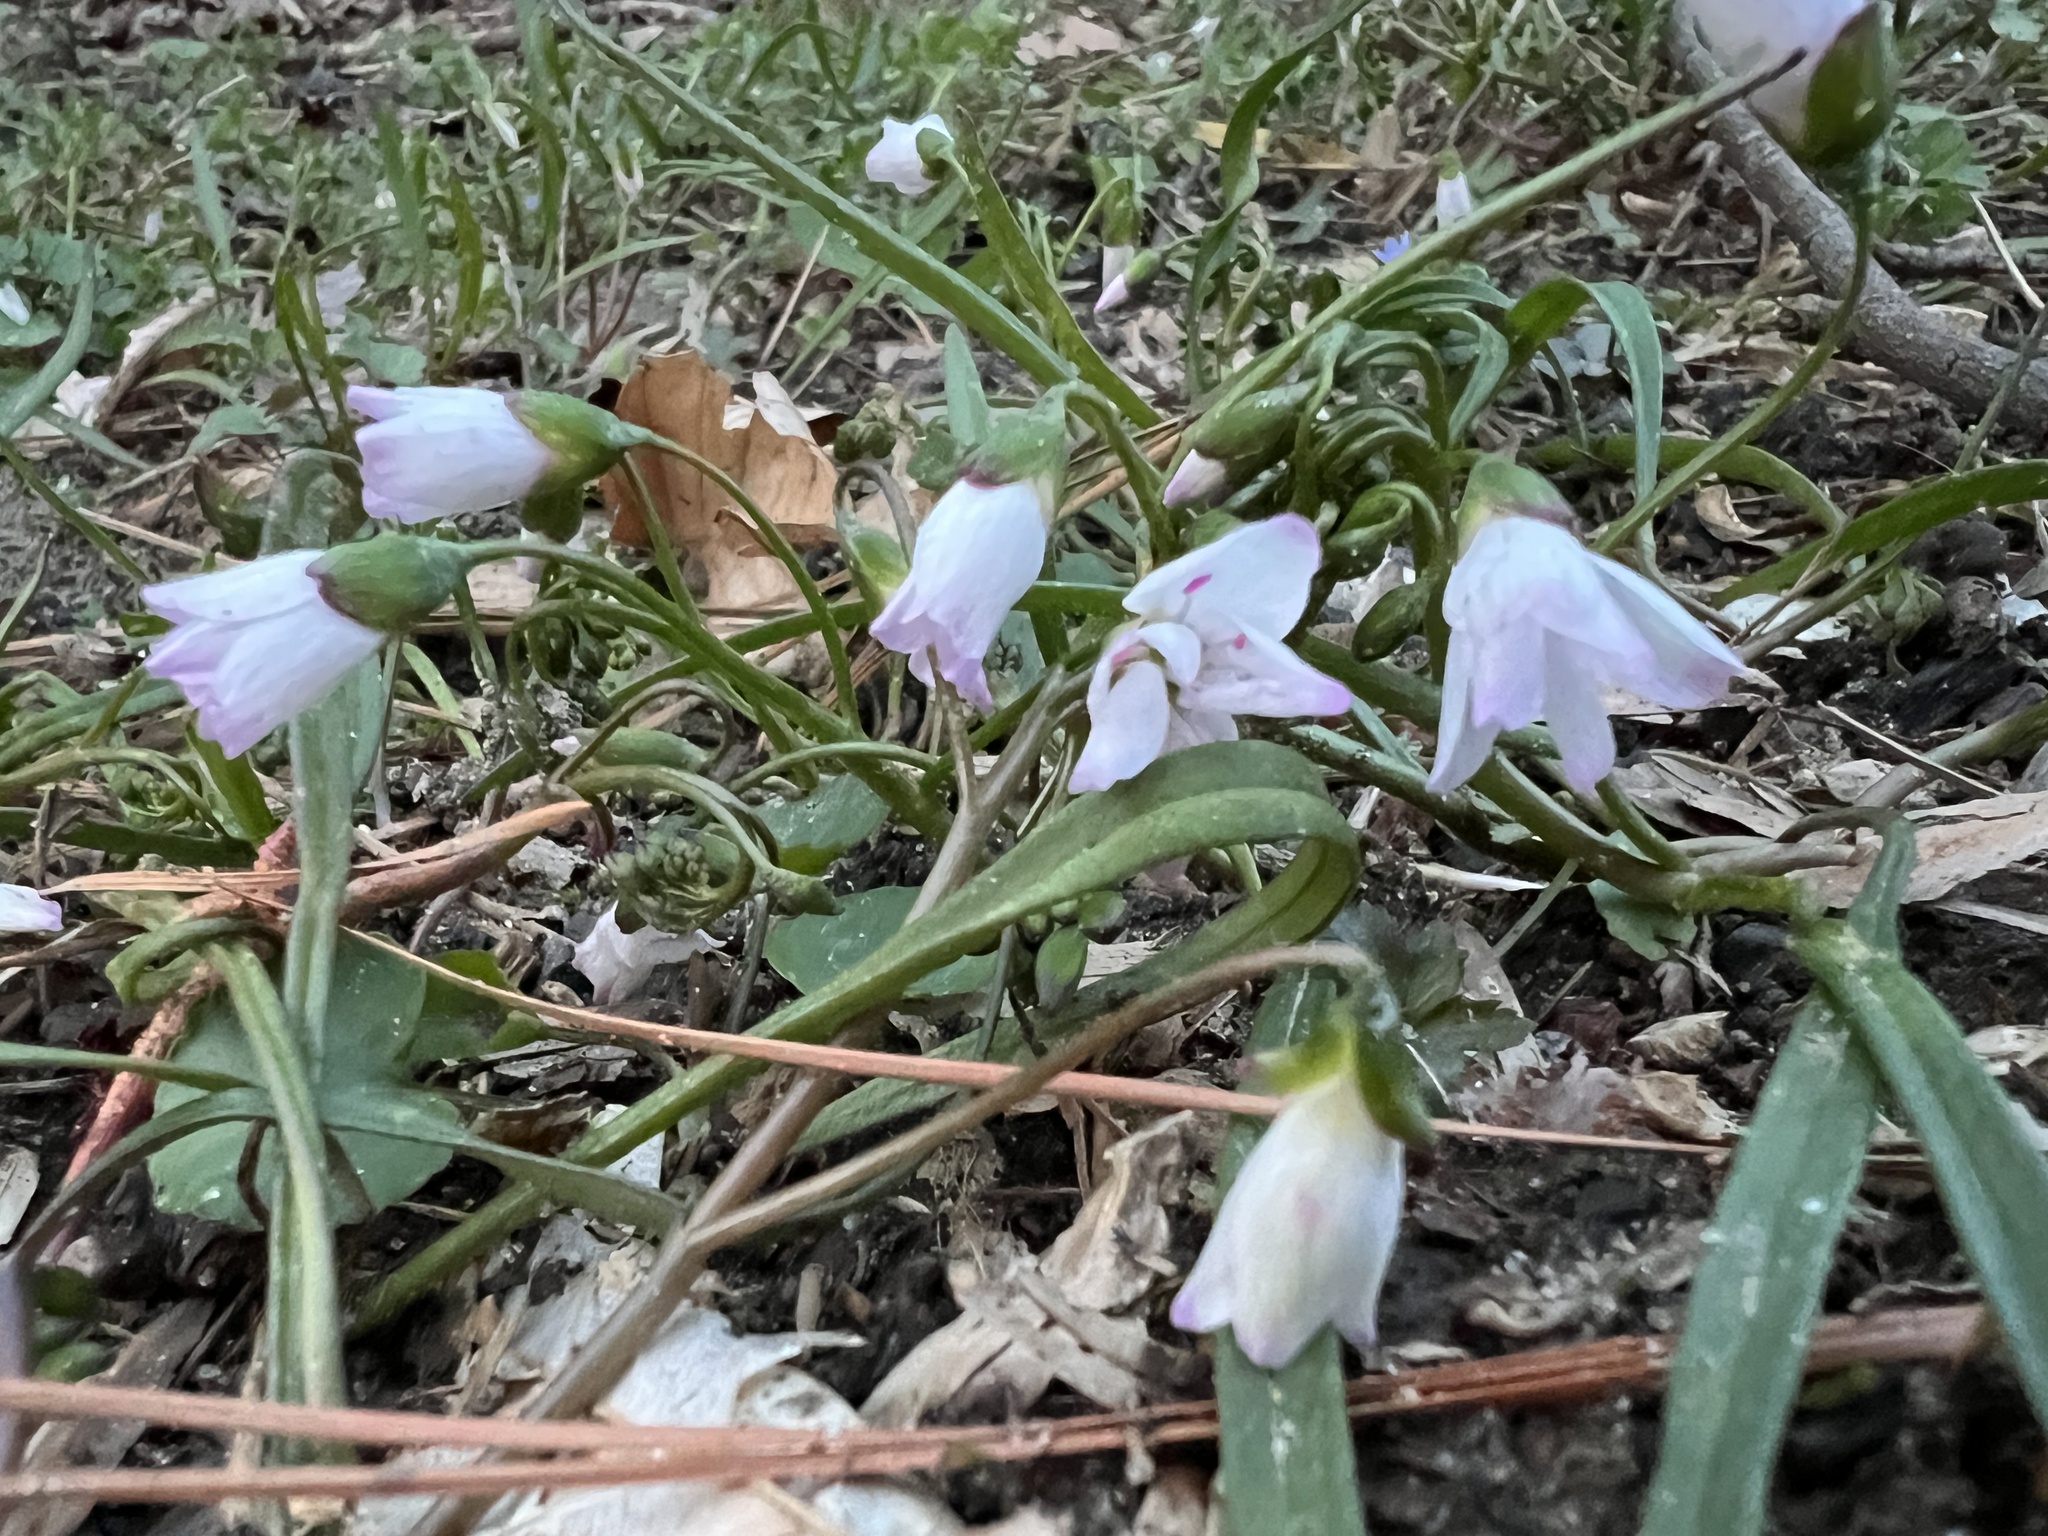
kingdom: Plantae
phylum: Tracheophyta
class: Magnoliopsida
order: Caryophyllales
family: Montiaceae
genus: Claytonia
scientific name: Claytonia virginica
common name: Virginia springbeauty
